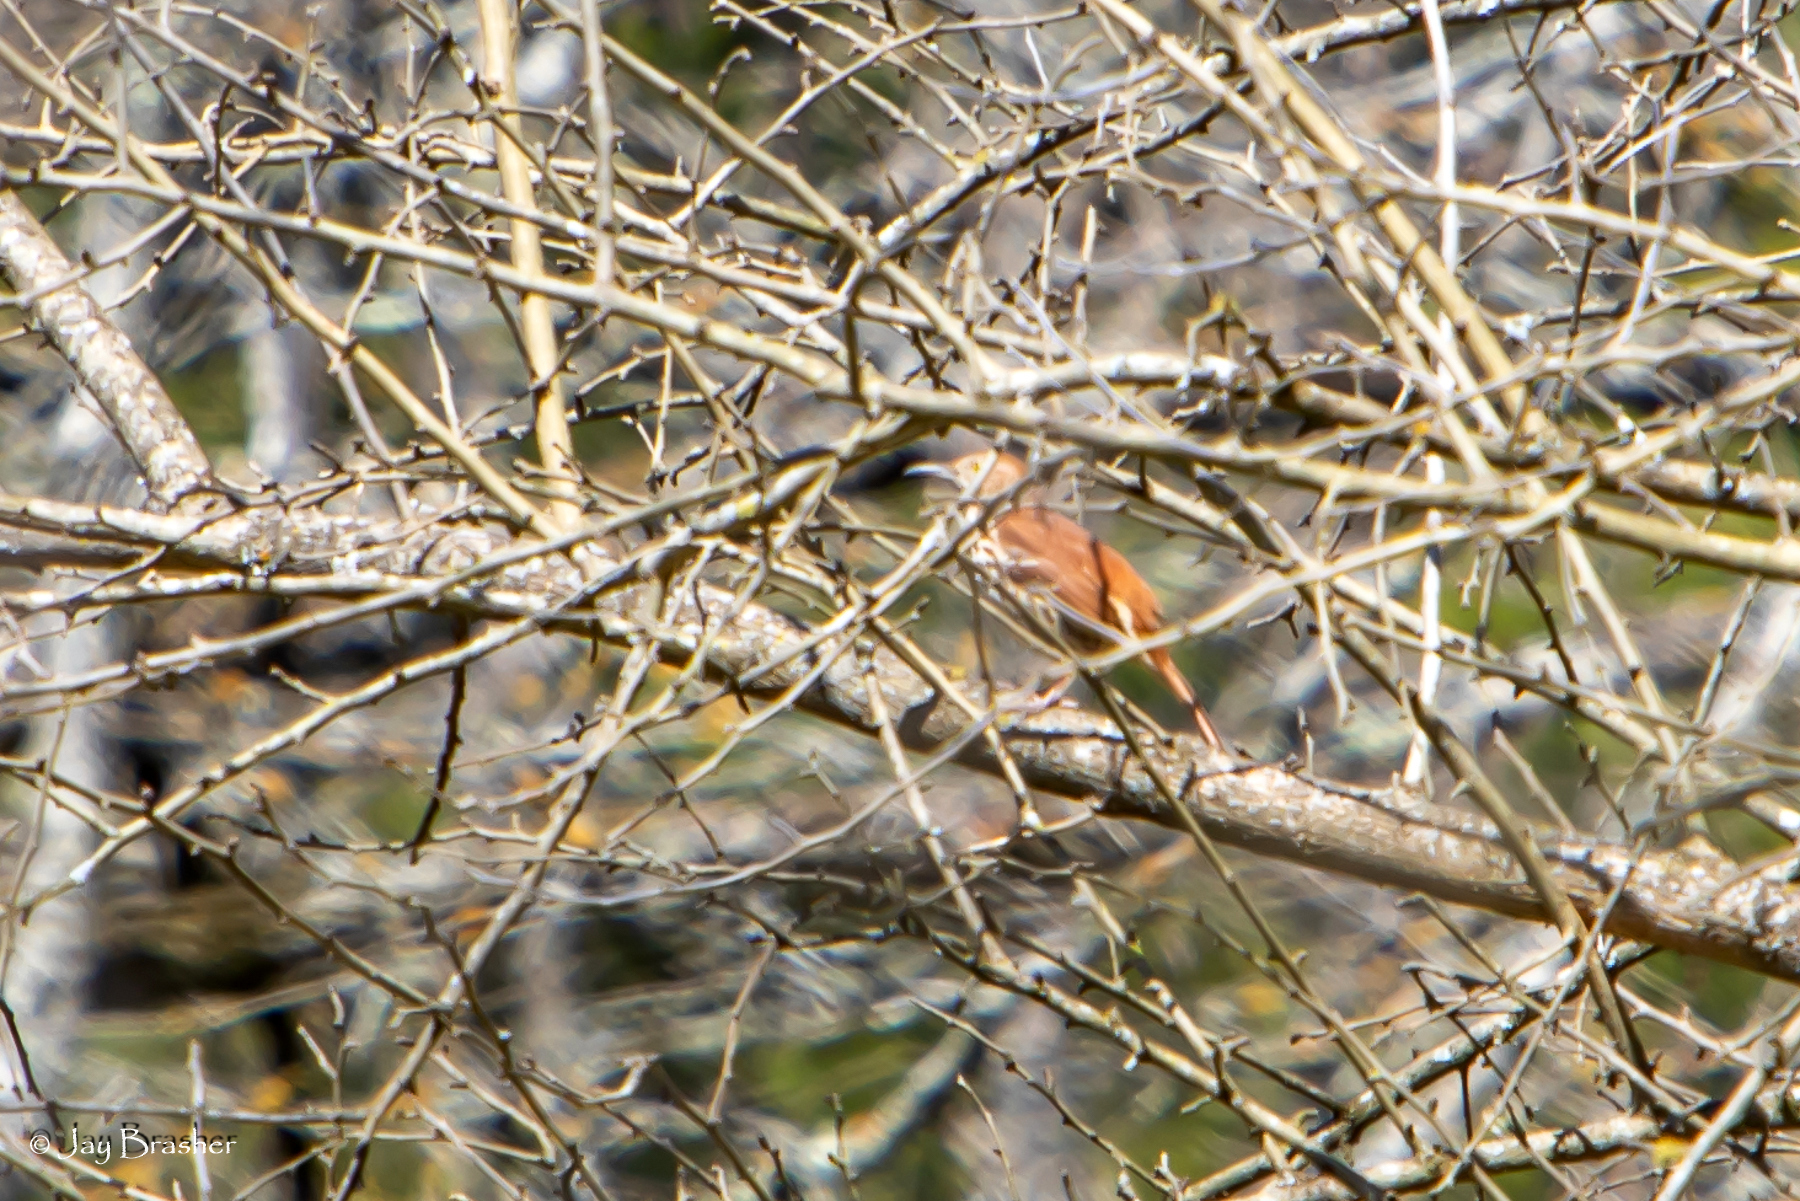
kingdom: Animalia
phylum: Chordata
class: Aves
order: Passeriformes
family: Mimidae
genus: Toxostoma
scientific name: Toxostoma rufum
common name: Brown thrasher
